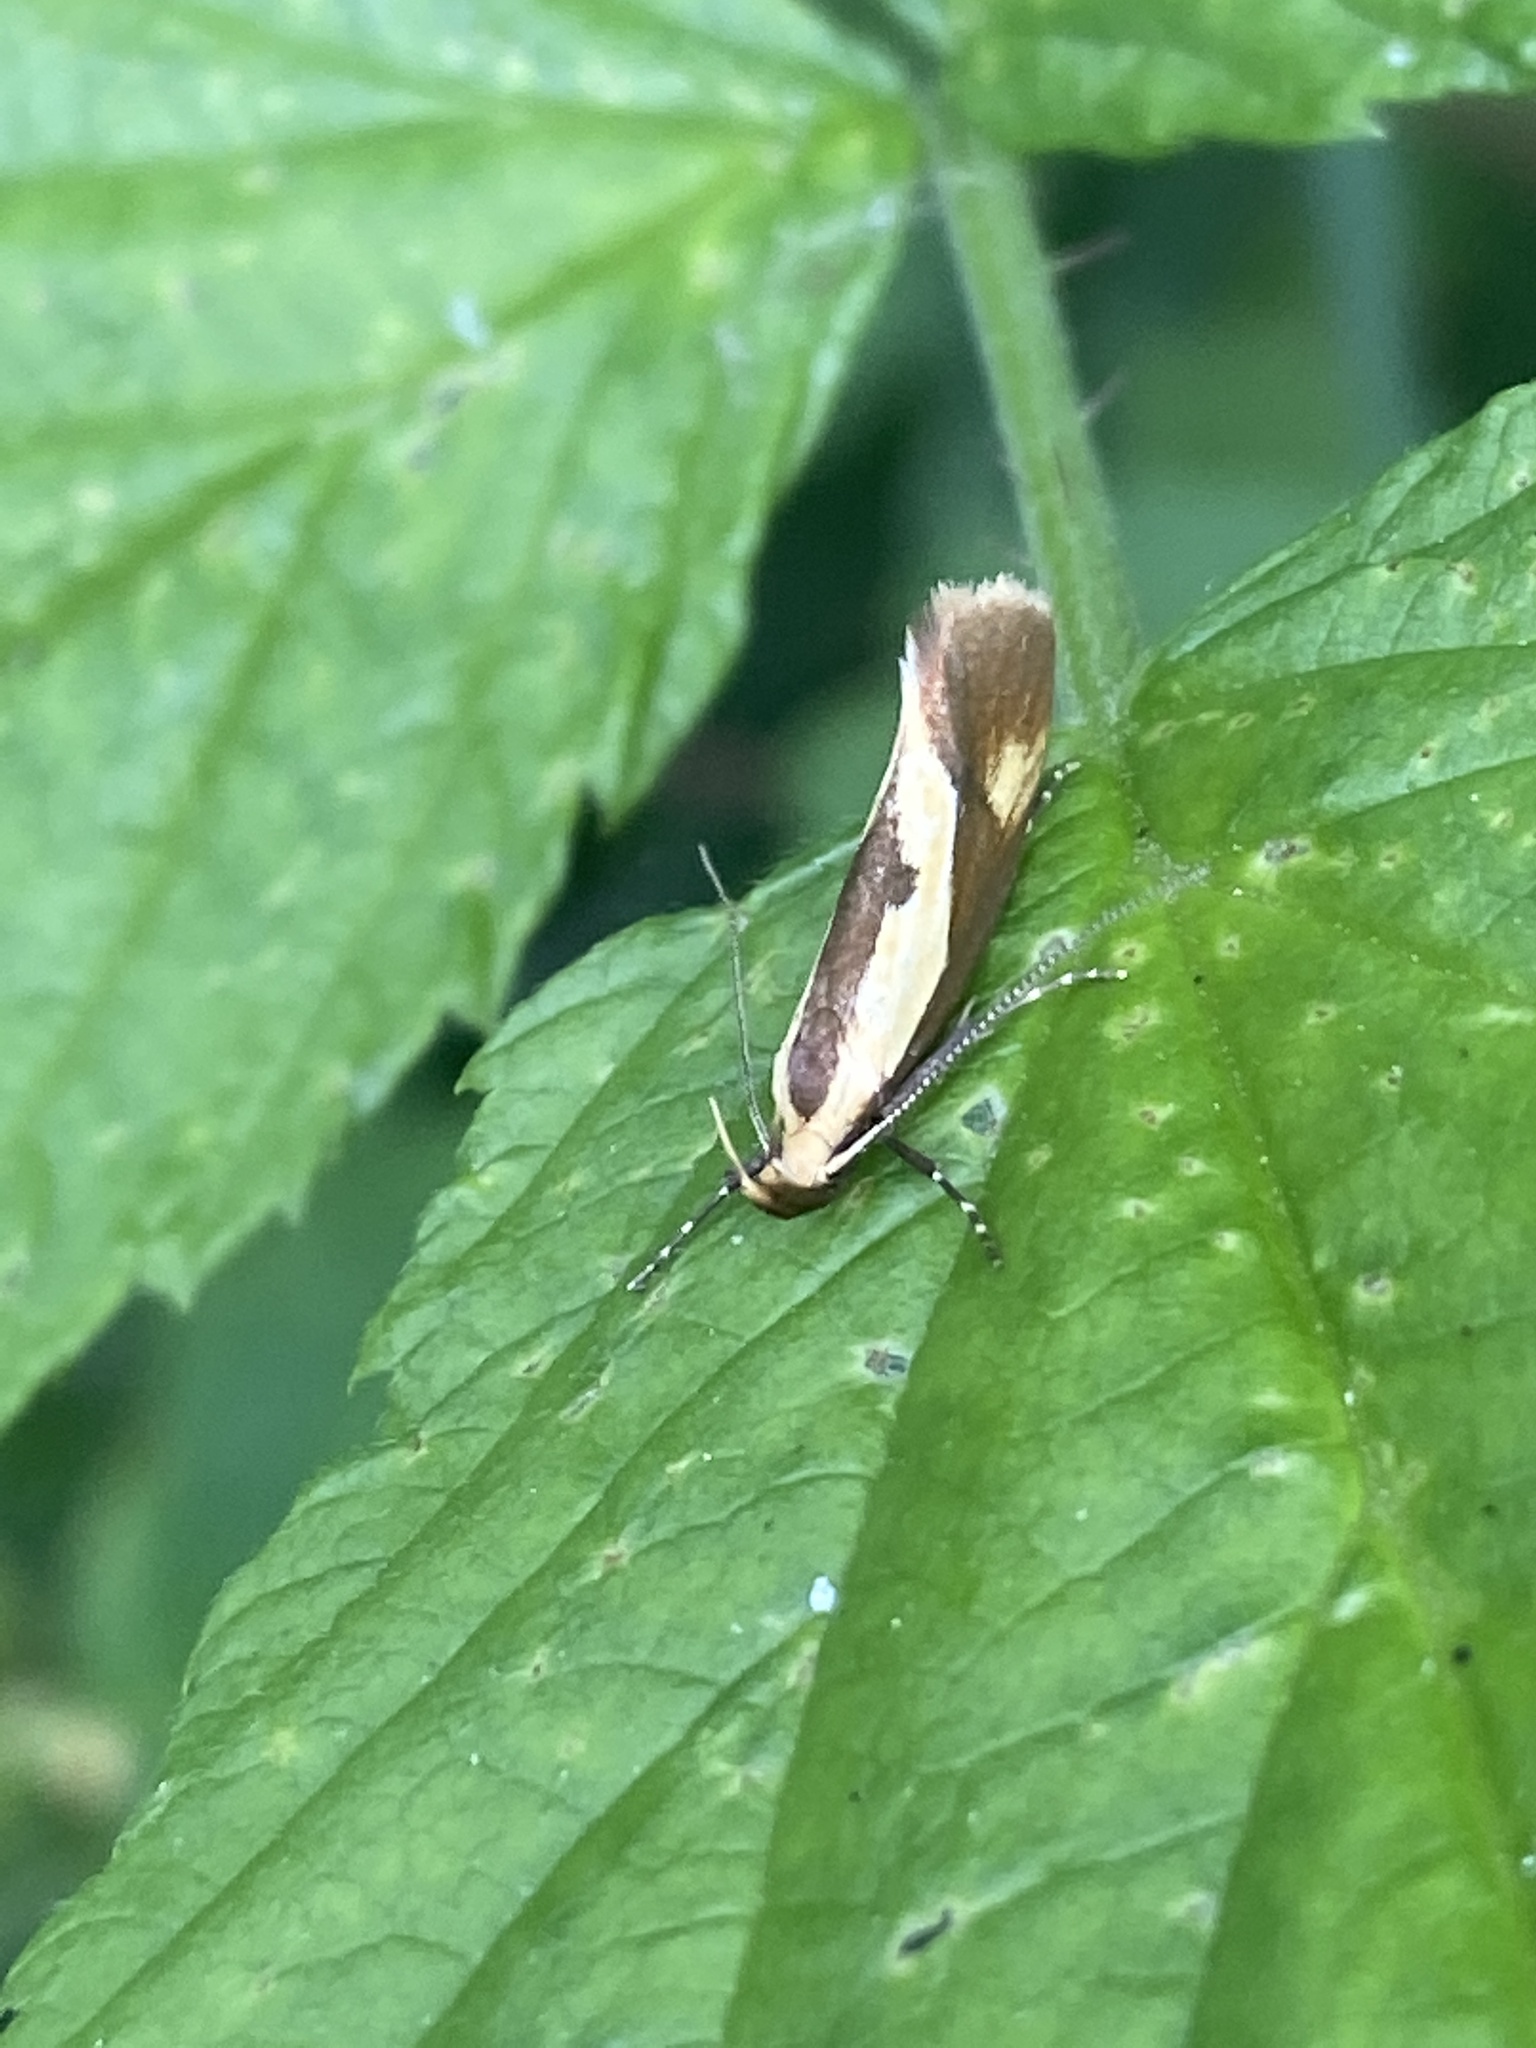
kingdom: Animalia
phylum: Arthropoda
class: Insecta
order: Lepidoptera
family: Oecophoridae
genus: Harpella
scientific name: Harpella forficella
